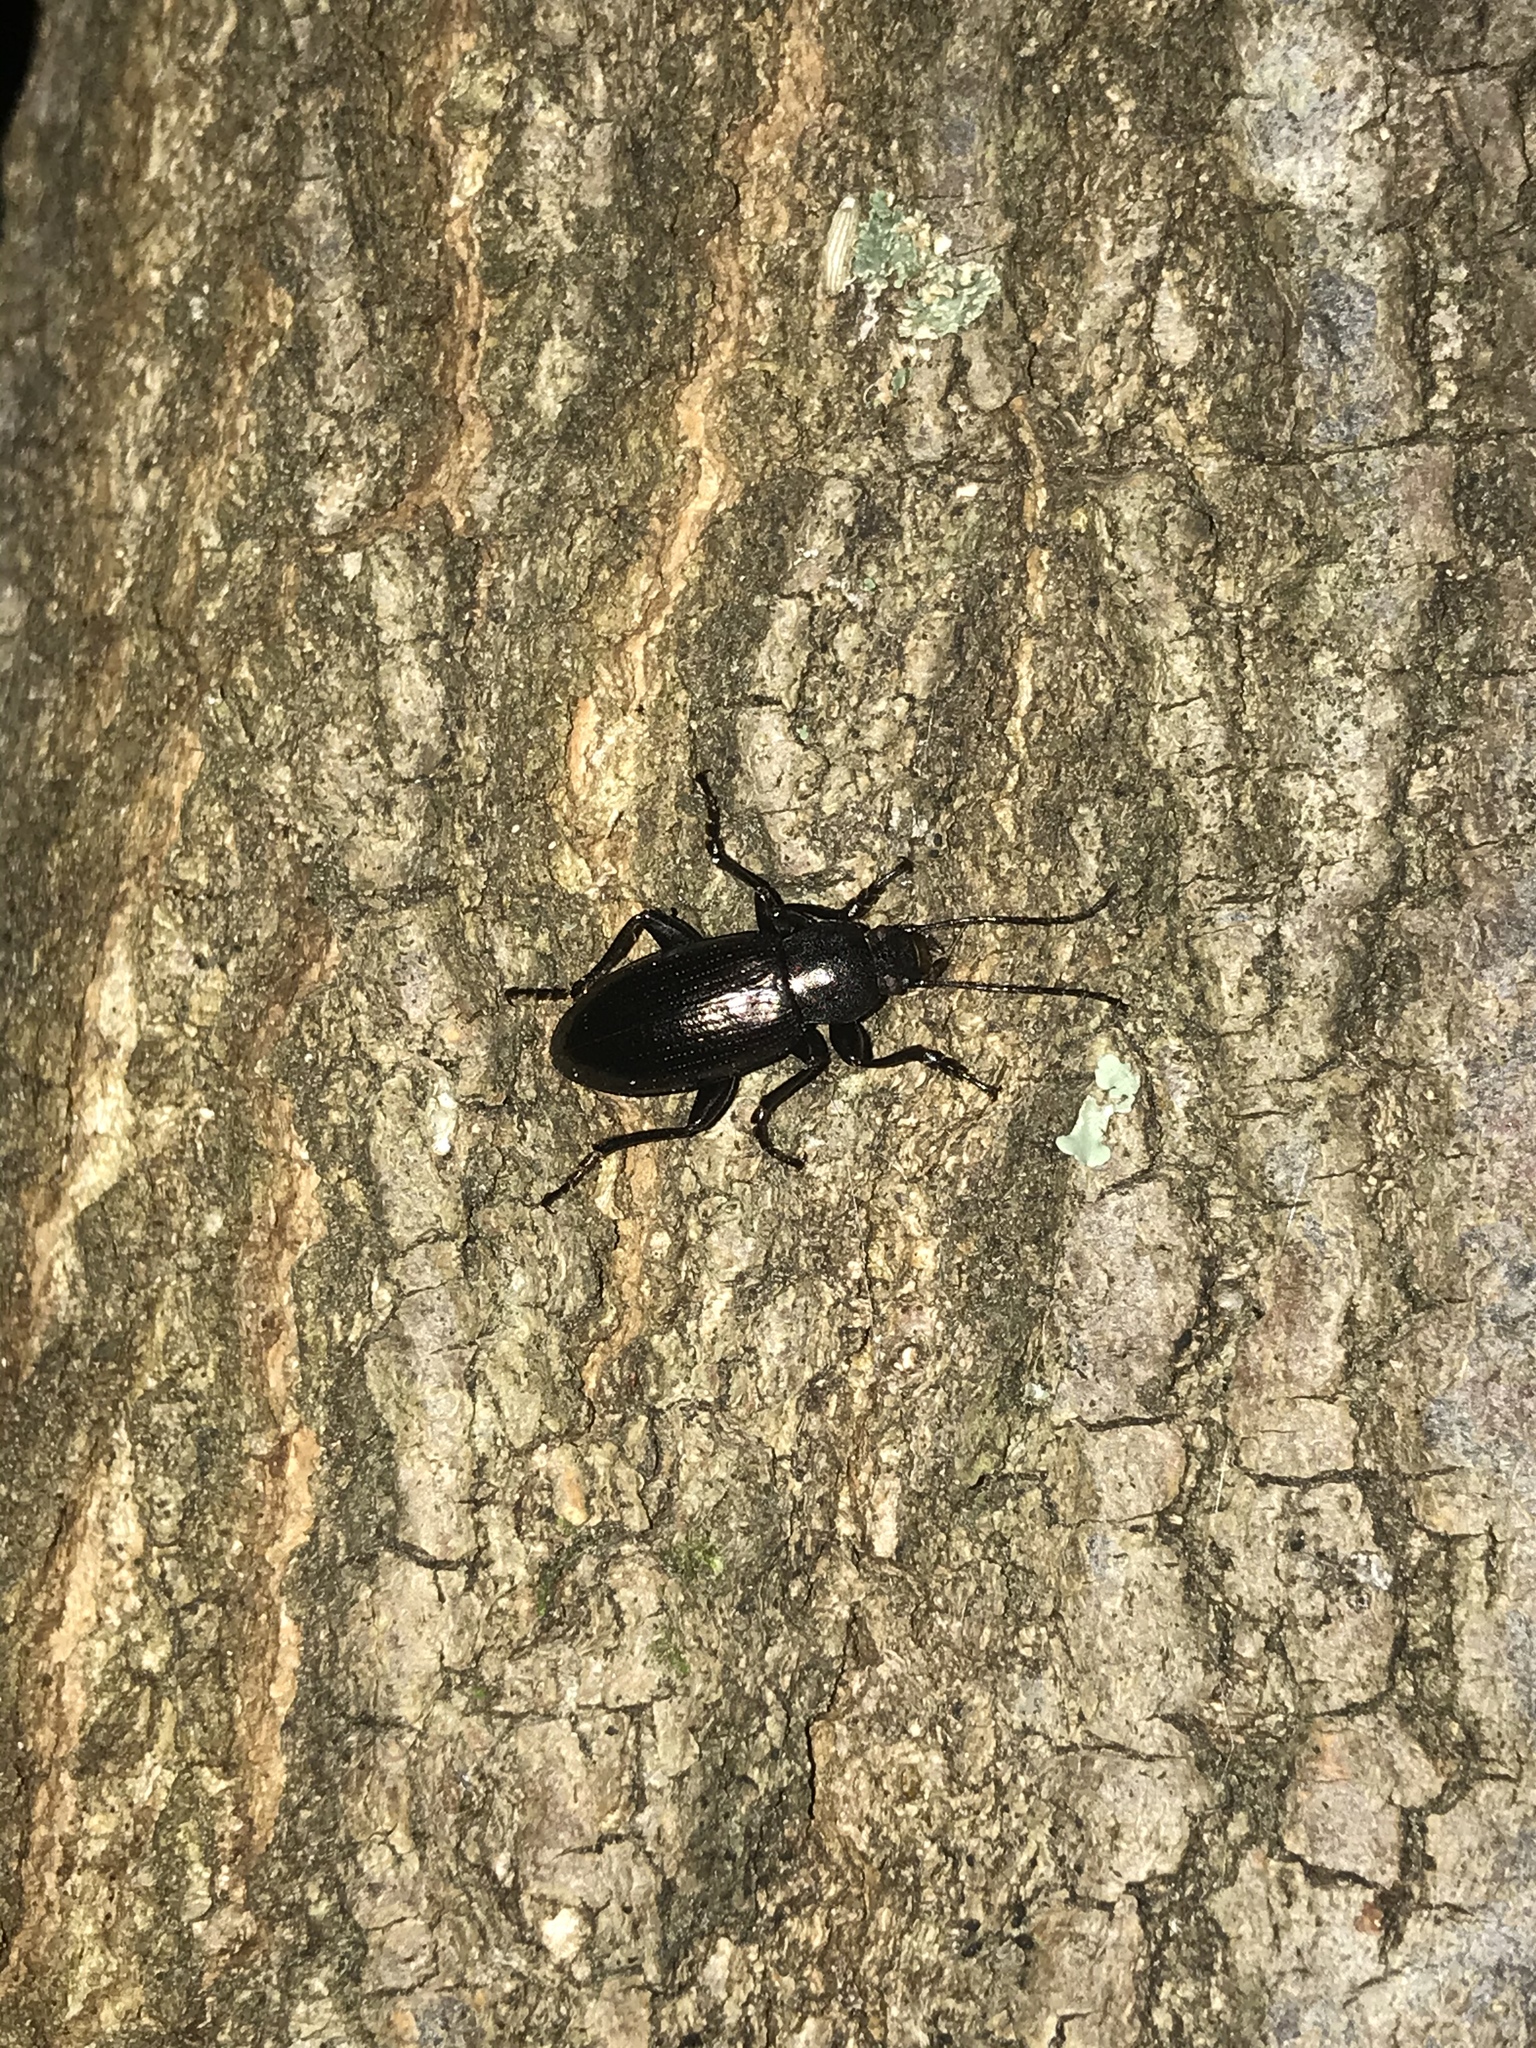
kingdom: Animalia
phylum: Arthropoda
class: Insecta
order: Coleoptera
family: Tenebrionidae
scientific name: Tenebrionidae
